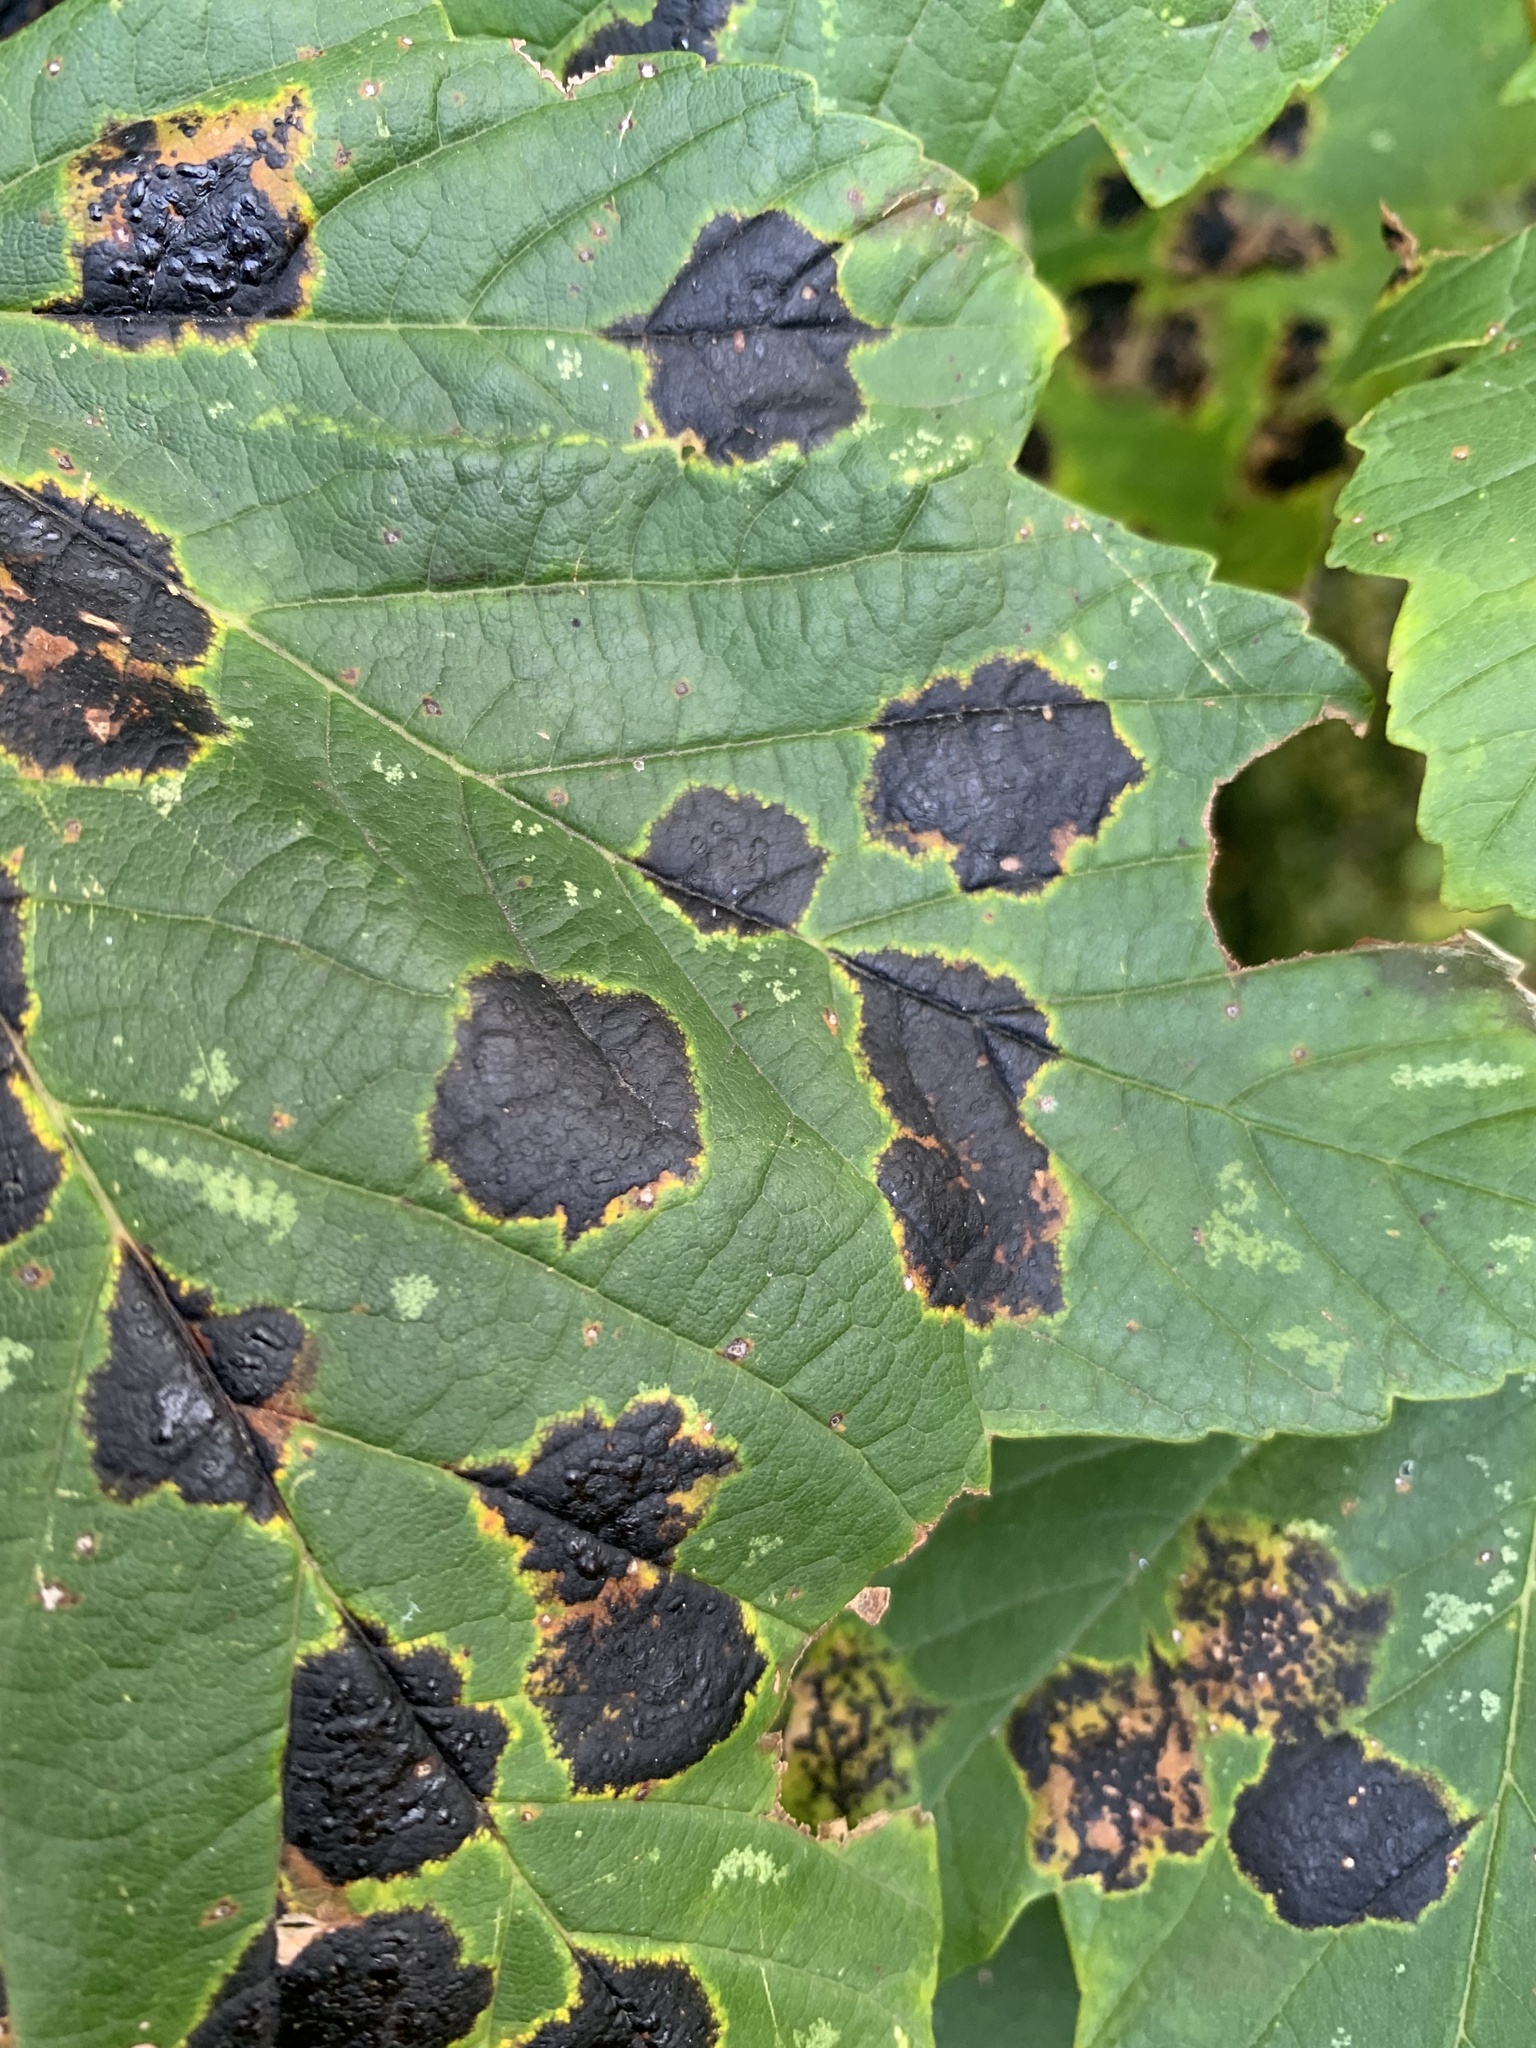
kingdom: Fungi
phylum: Ascomycota
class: Leotiomycetes
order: Rhytismatales
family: Rhytismataceae
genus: Rhytisma
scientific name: Rhytisma acerinum
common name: European tar spot
